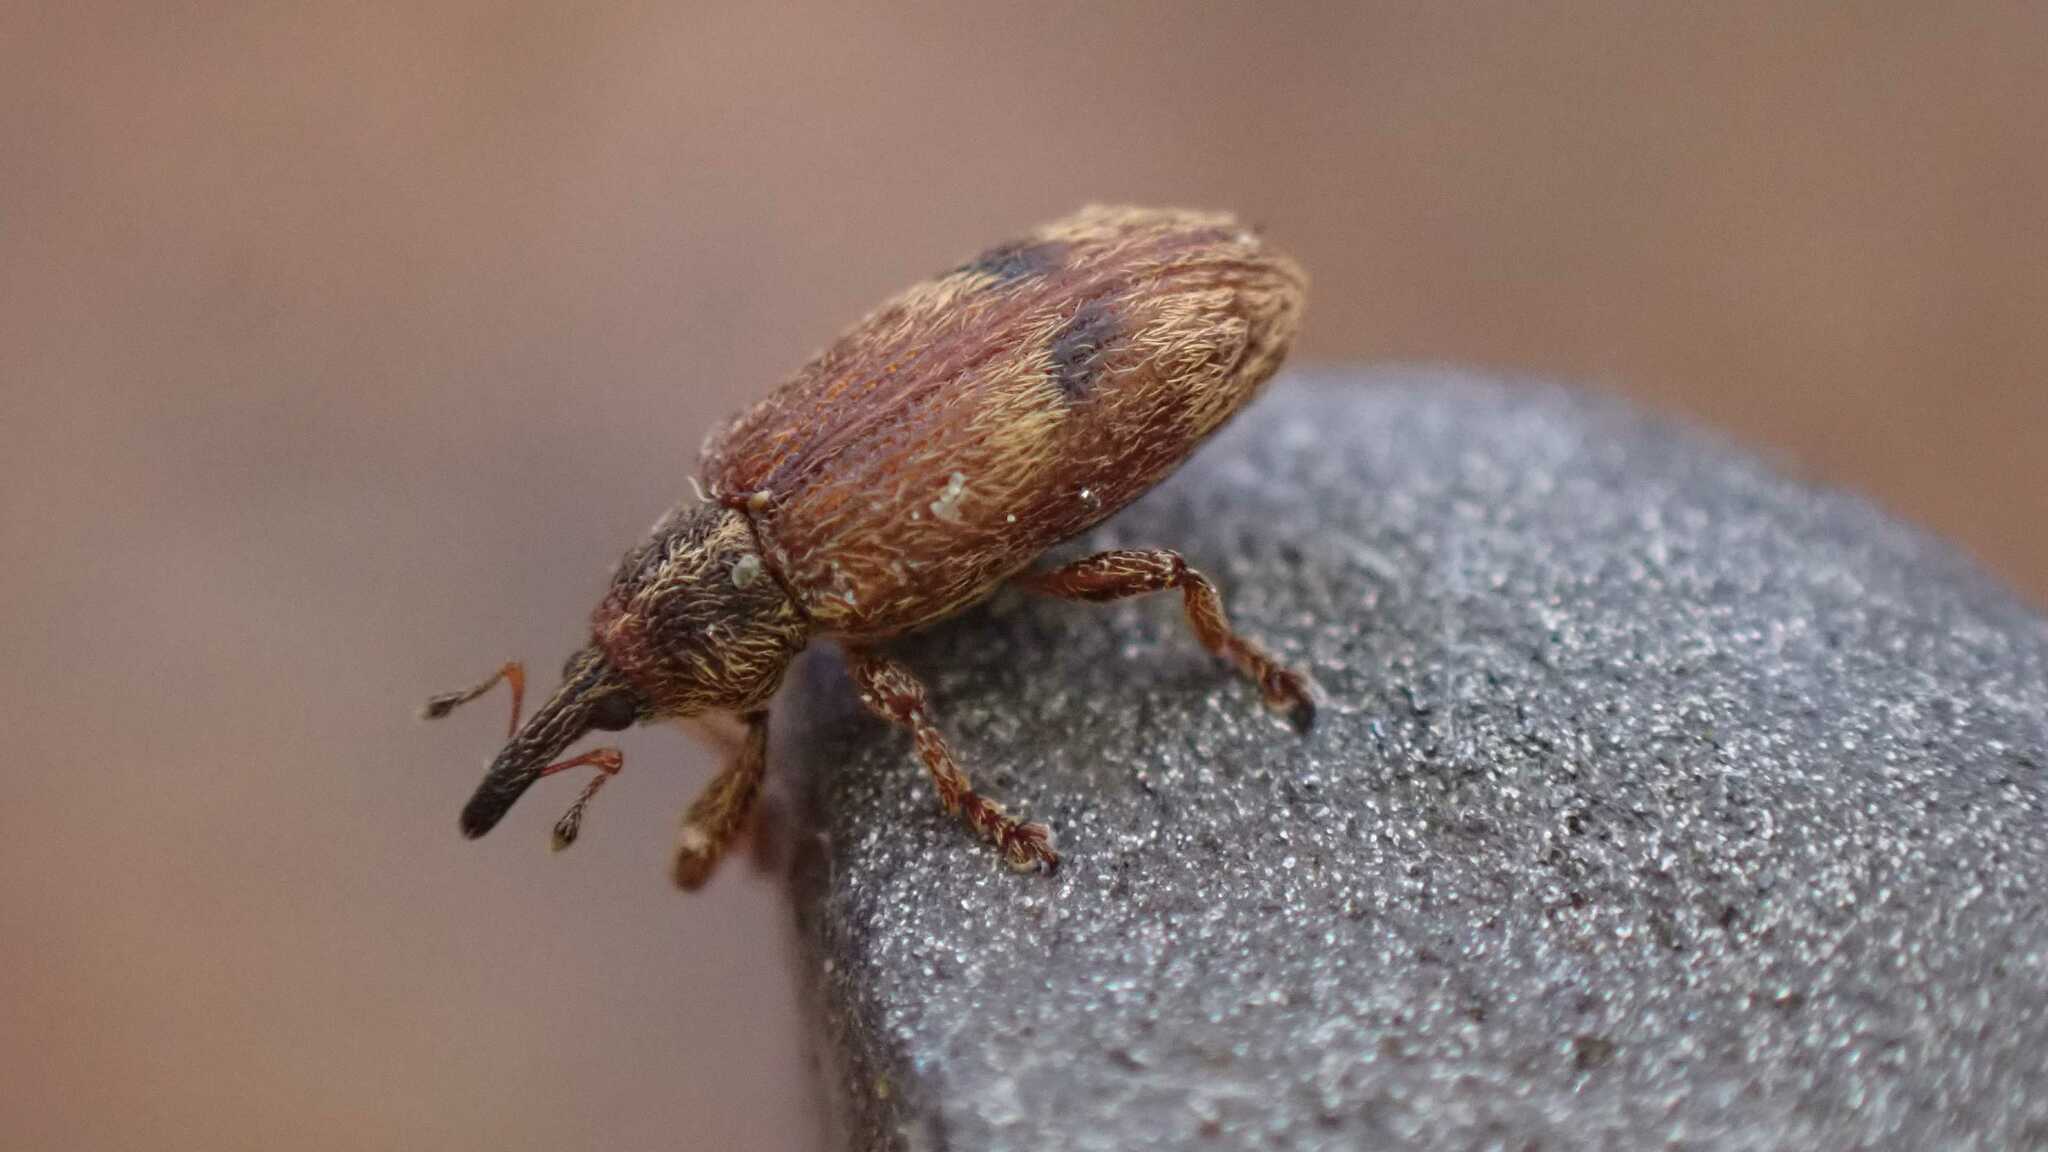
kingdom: Animalia
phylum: Arthropoda
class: Insecta
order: Coleoptera
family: Curculionidae
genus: Bradybatus
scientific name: Bradybatus creutzeri
